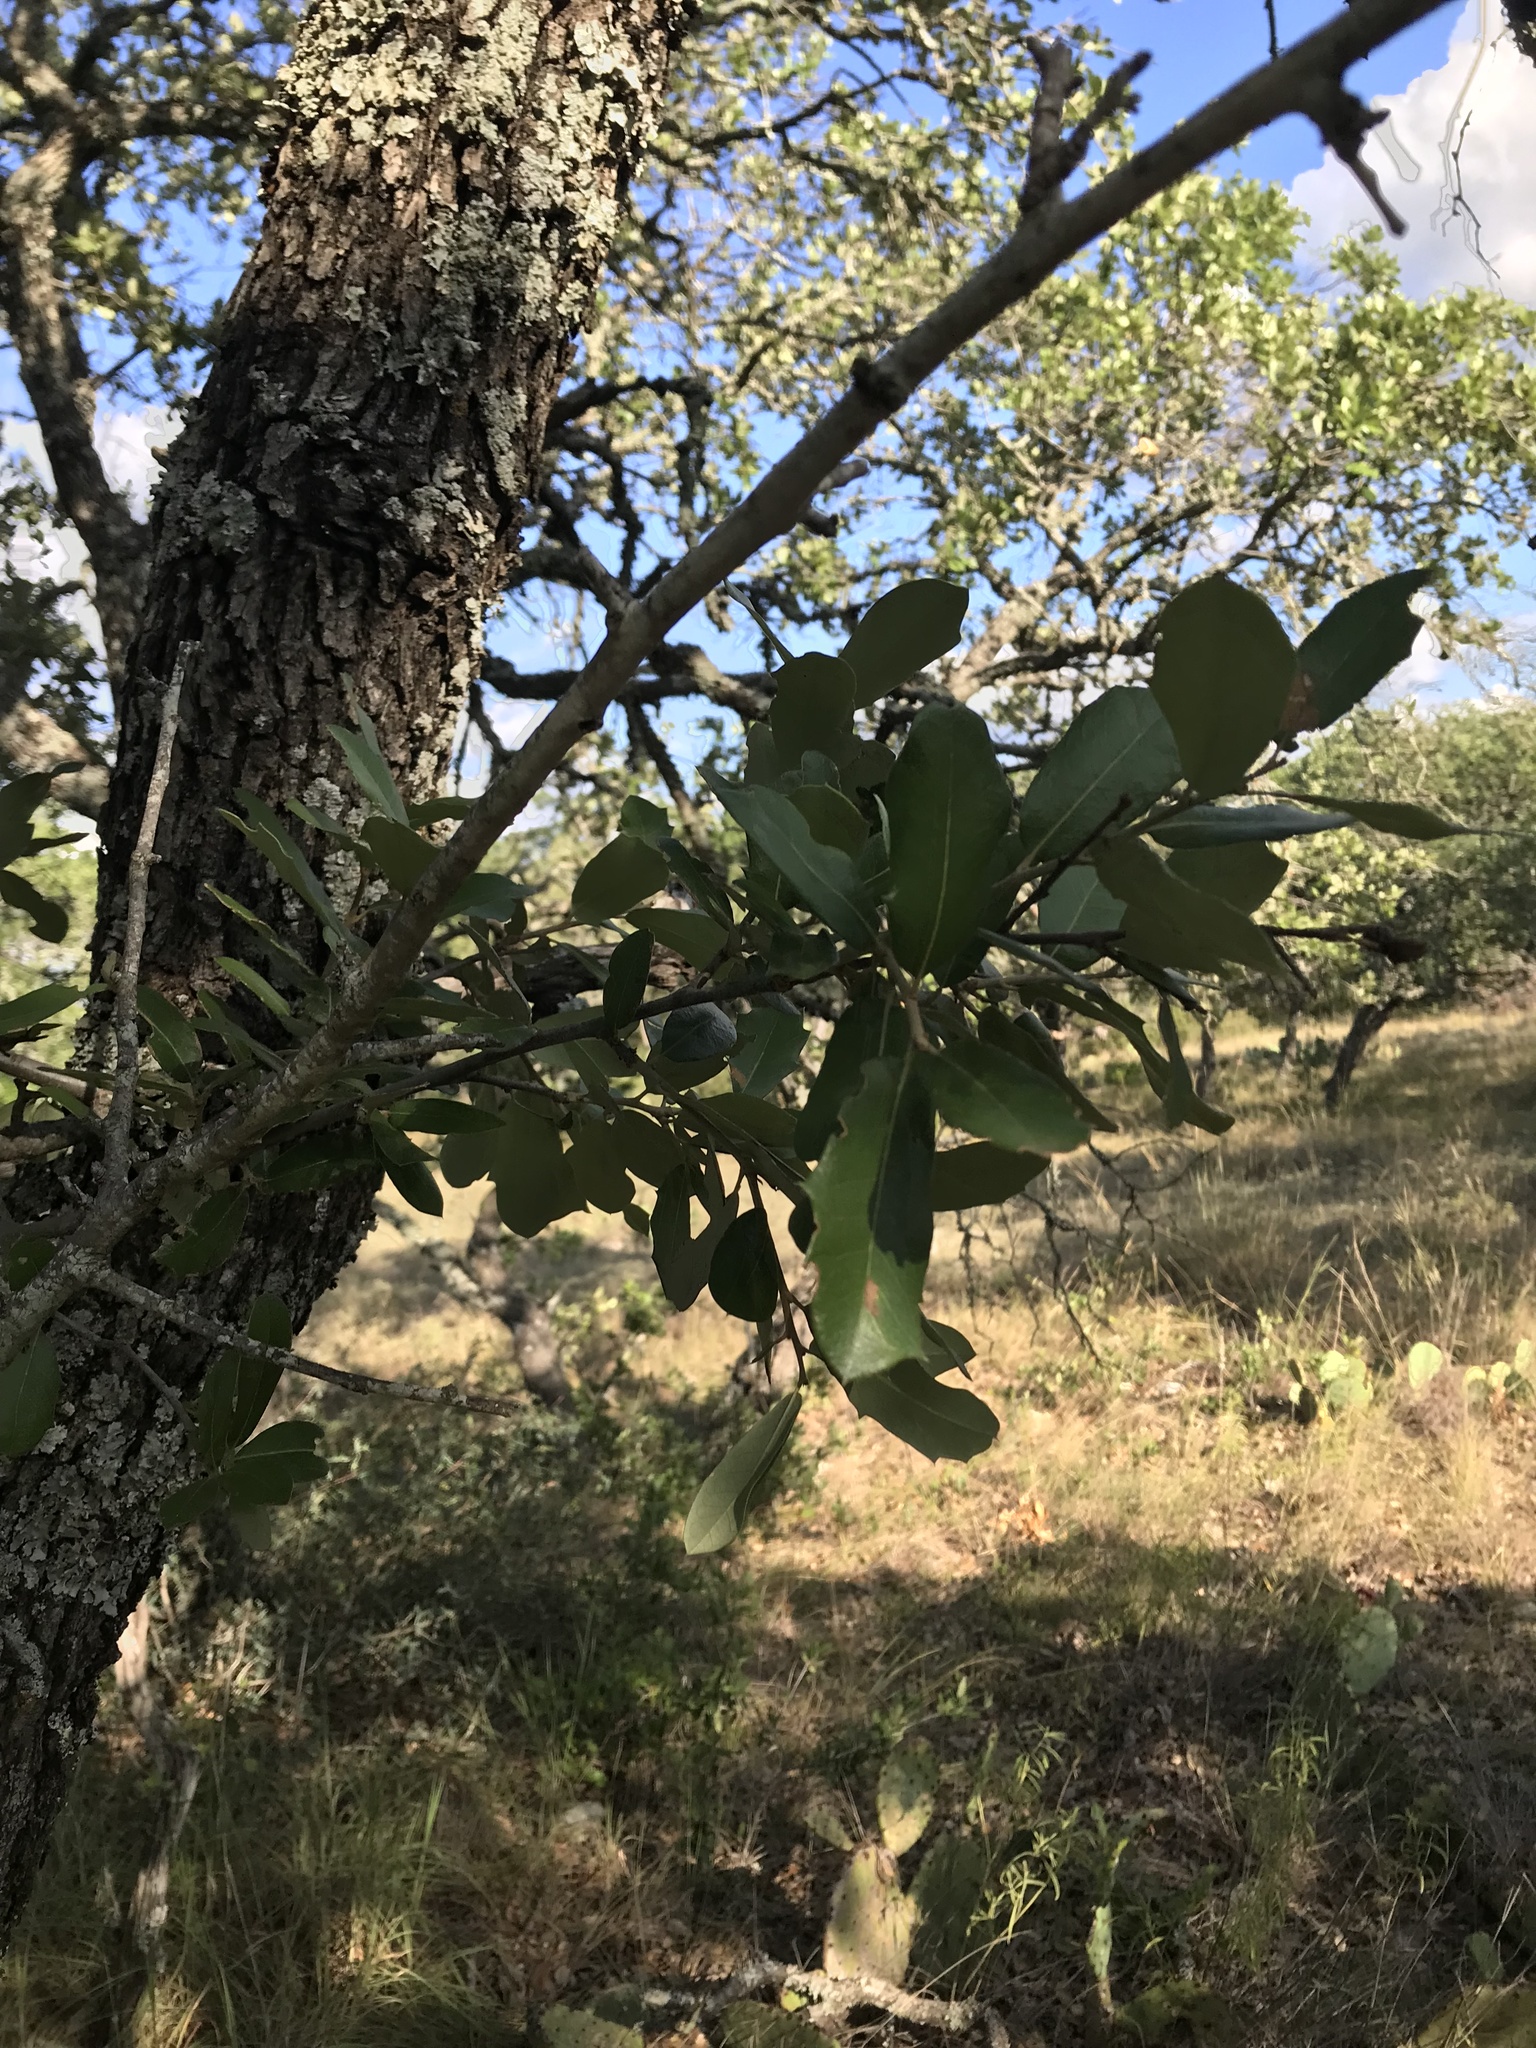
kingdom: Plantae
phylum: Tracheophyta
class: Magnoliopsida
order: Fagales
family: Fagaceae
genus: Quercus
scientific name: Quercus fusiformis
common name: Texas live oak
